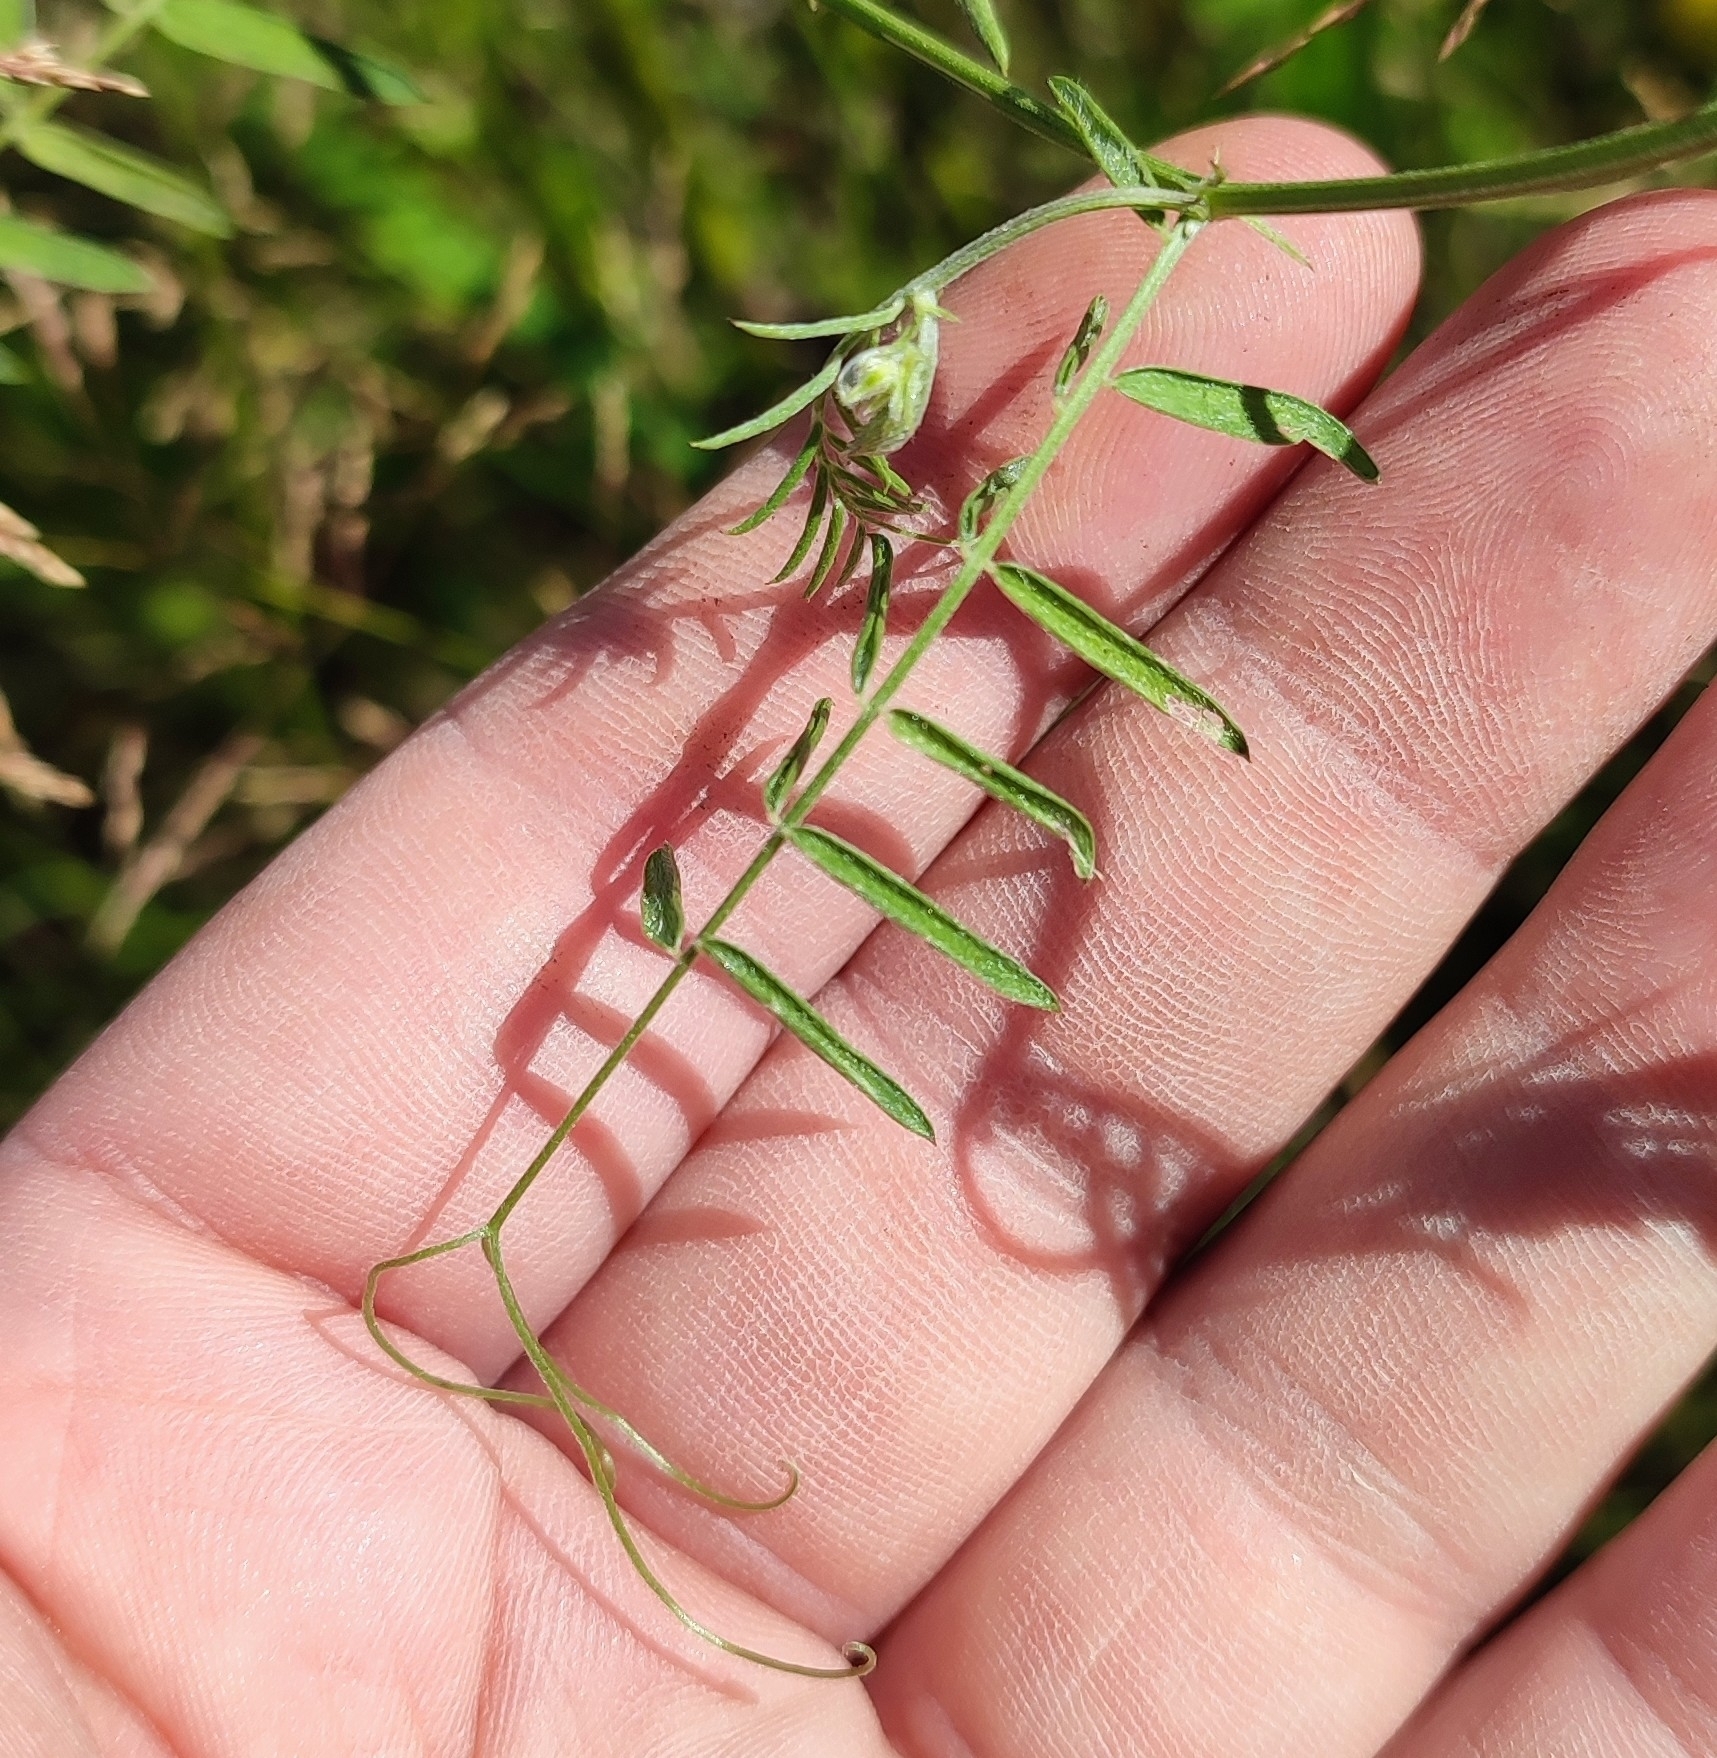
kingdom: Plantae
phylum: Tracheophyta
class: Magnoliopsida
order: Fabales
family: Fabaceae
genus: Vicia
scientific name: Vicia cracca
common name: Bird vetch
